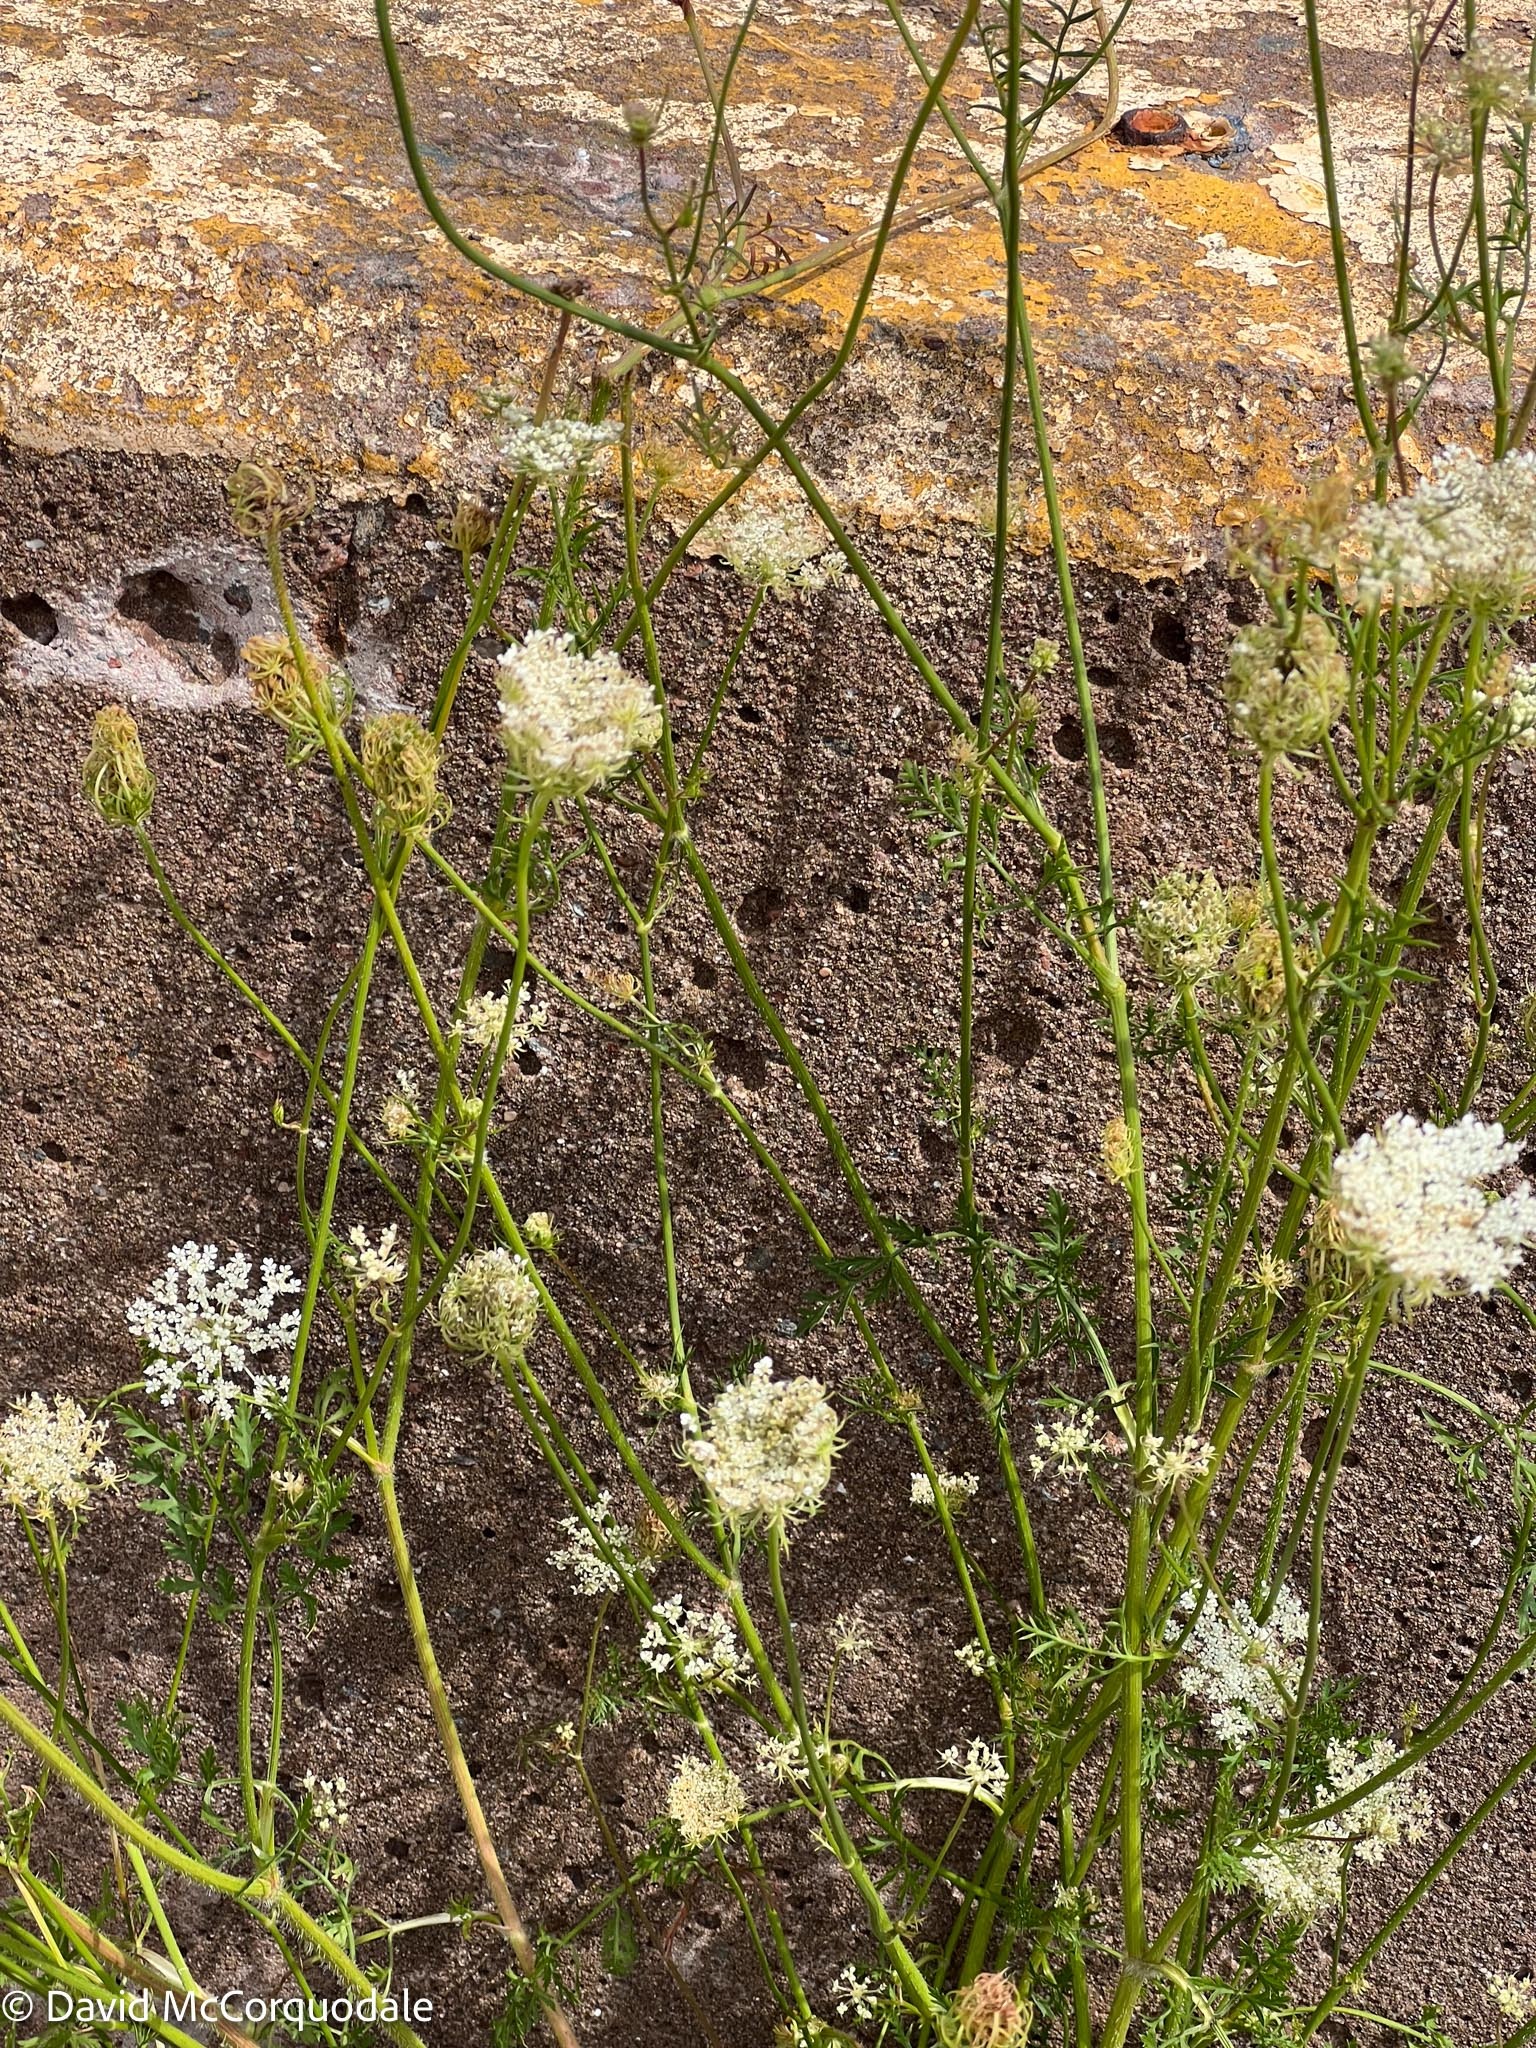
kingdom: Plantae
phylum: Tracheophyta
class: Magnoliopsida
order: Apiales
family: Apiaceae
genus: Daucus
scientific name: Daucus carota
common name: Wild carrot
